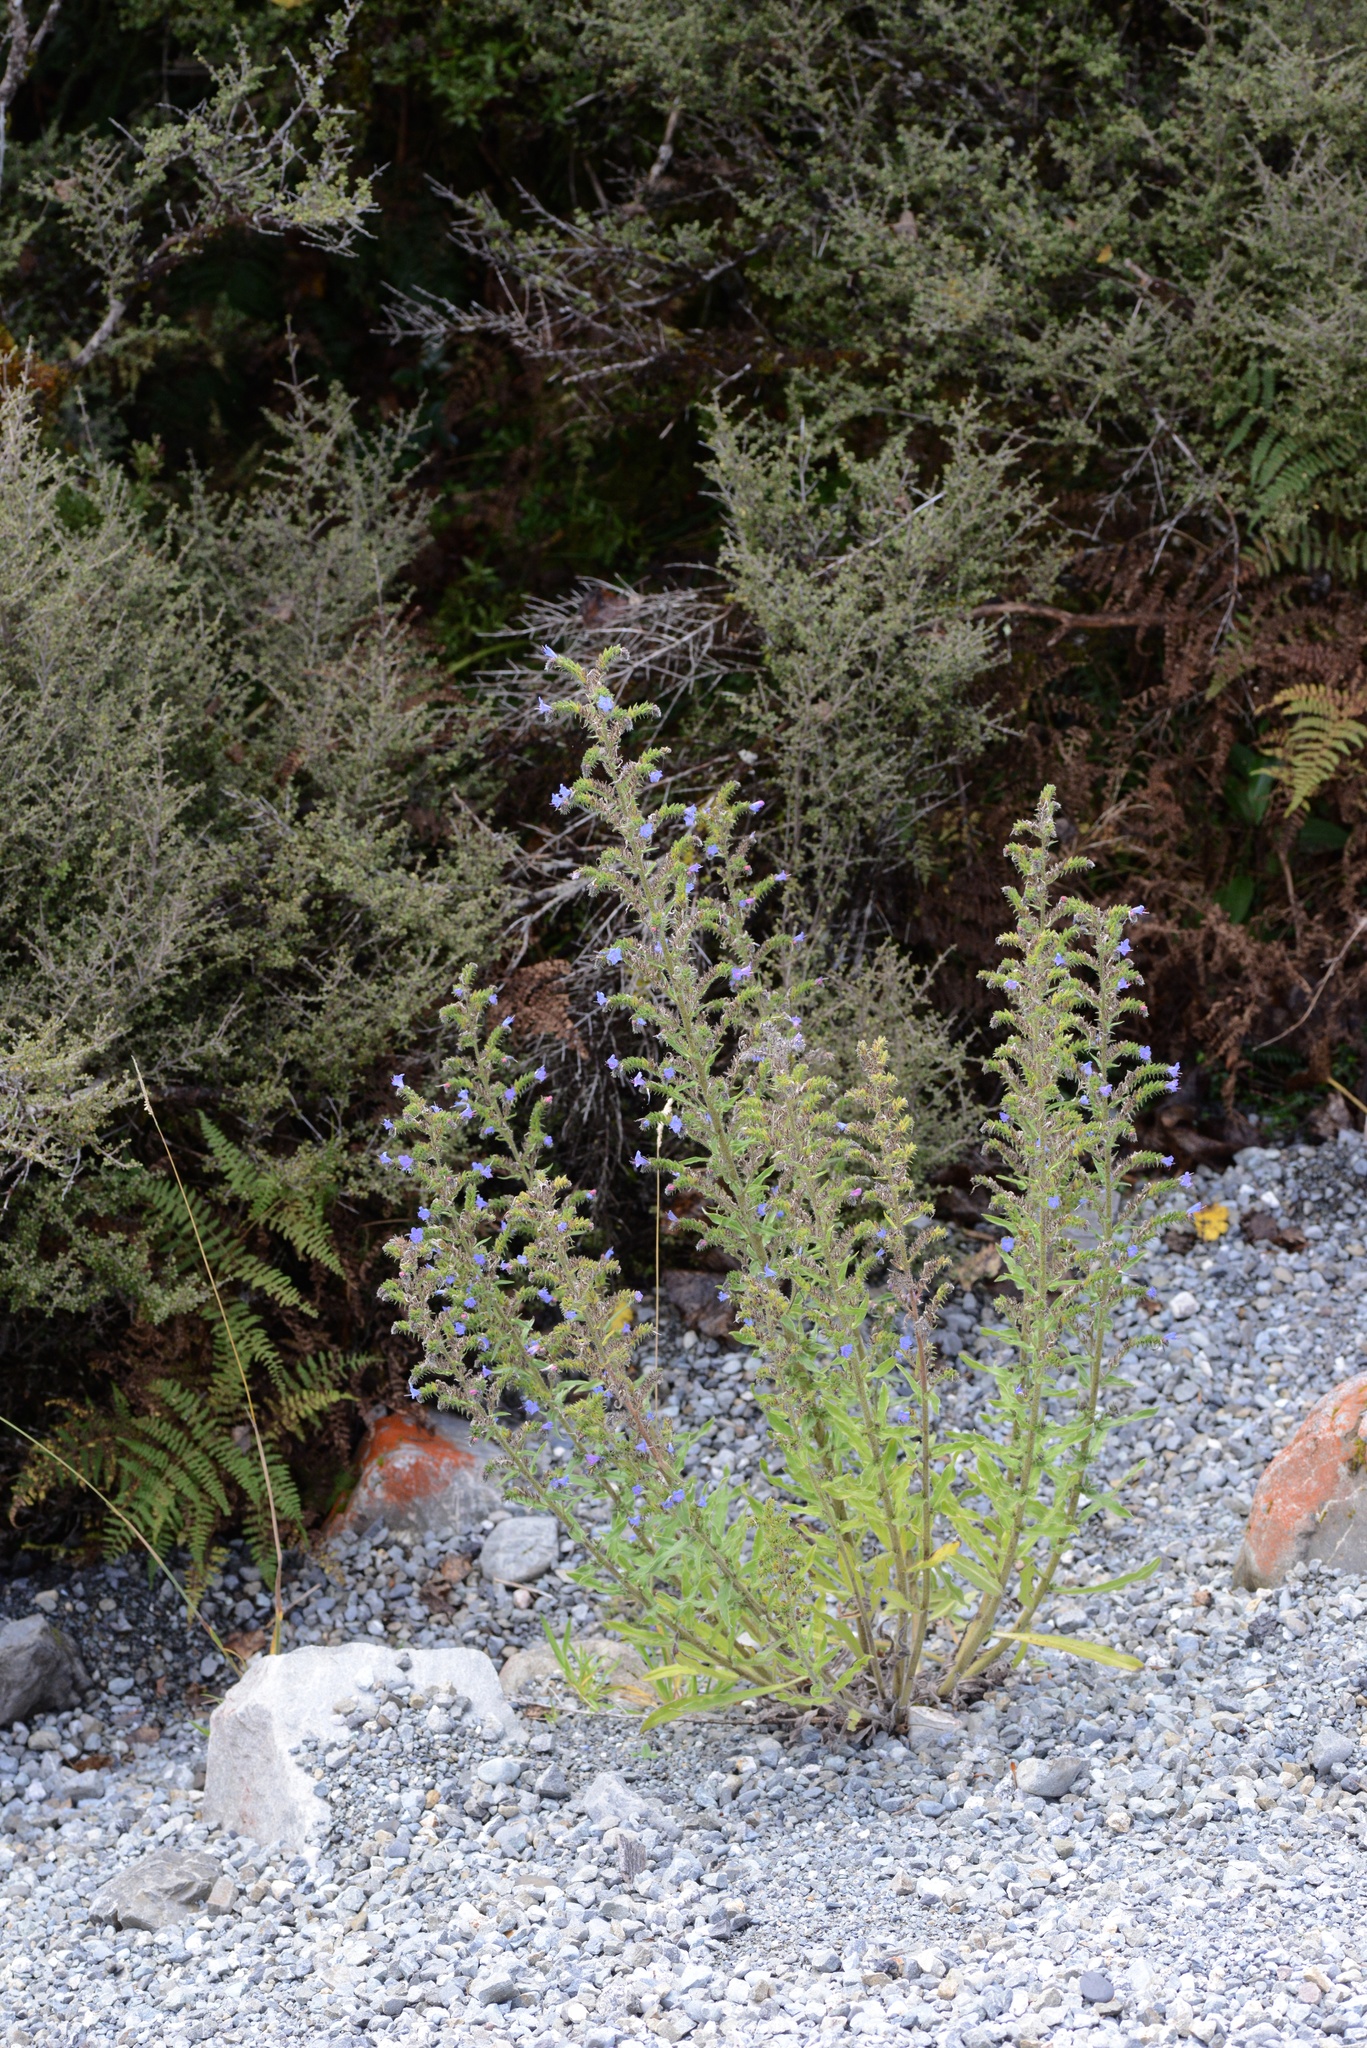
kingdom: Plantae
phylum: Tracheophyta
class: Magnoliopsida
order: Boraginales
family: Boraginaceae
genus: Echium
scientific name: Echium vulgare
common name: Common viper's bugloss
